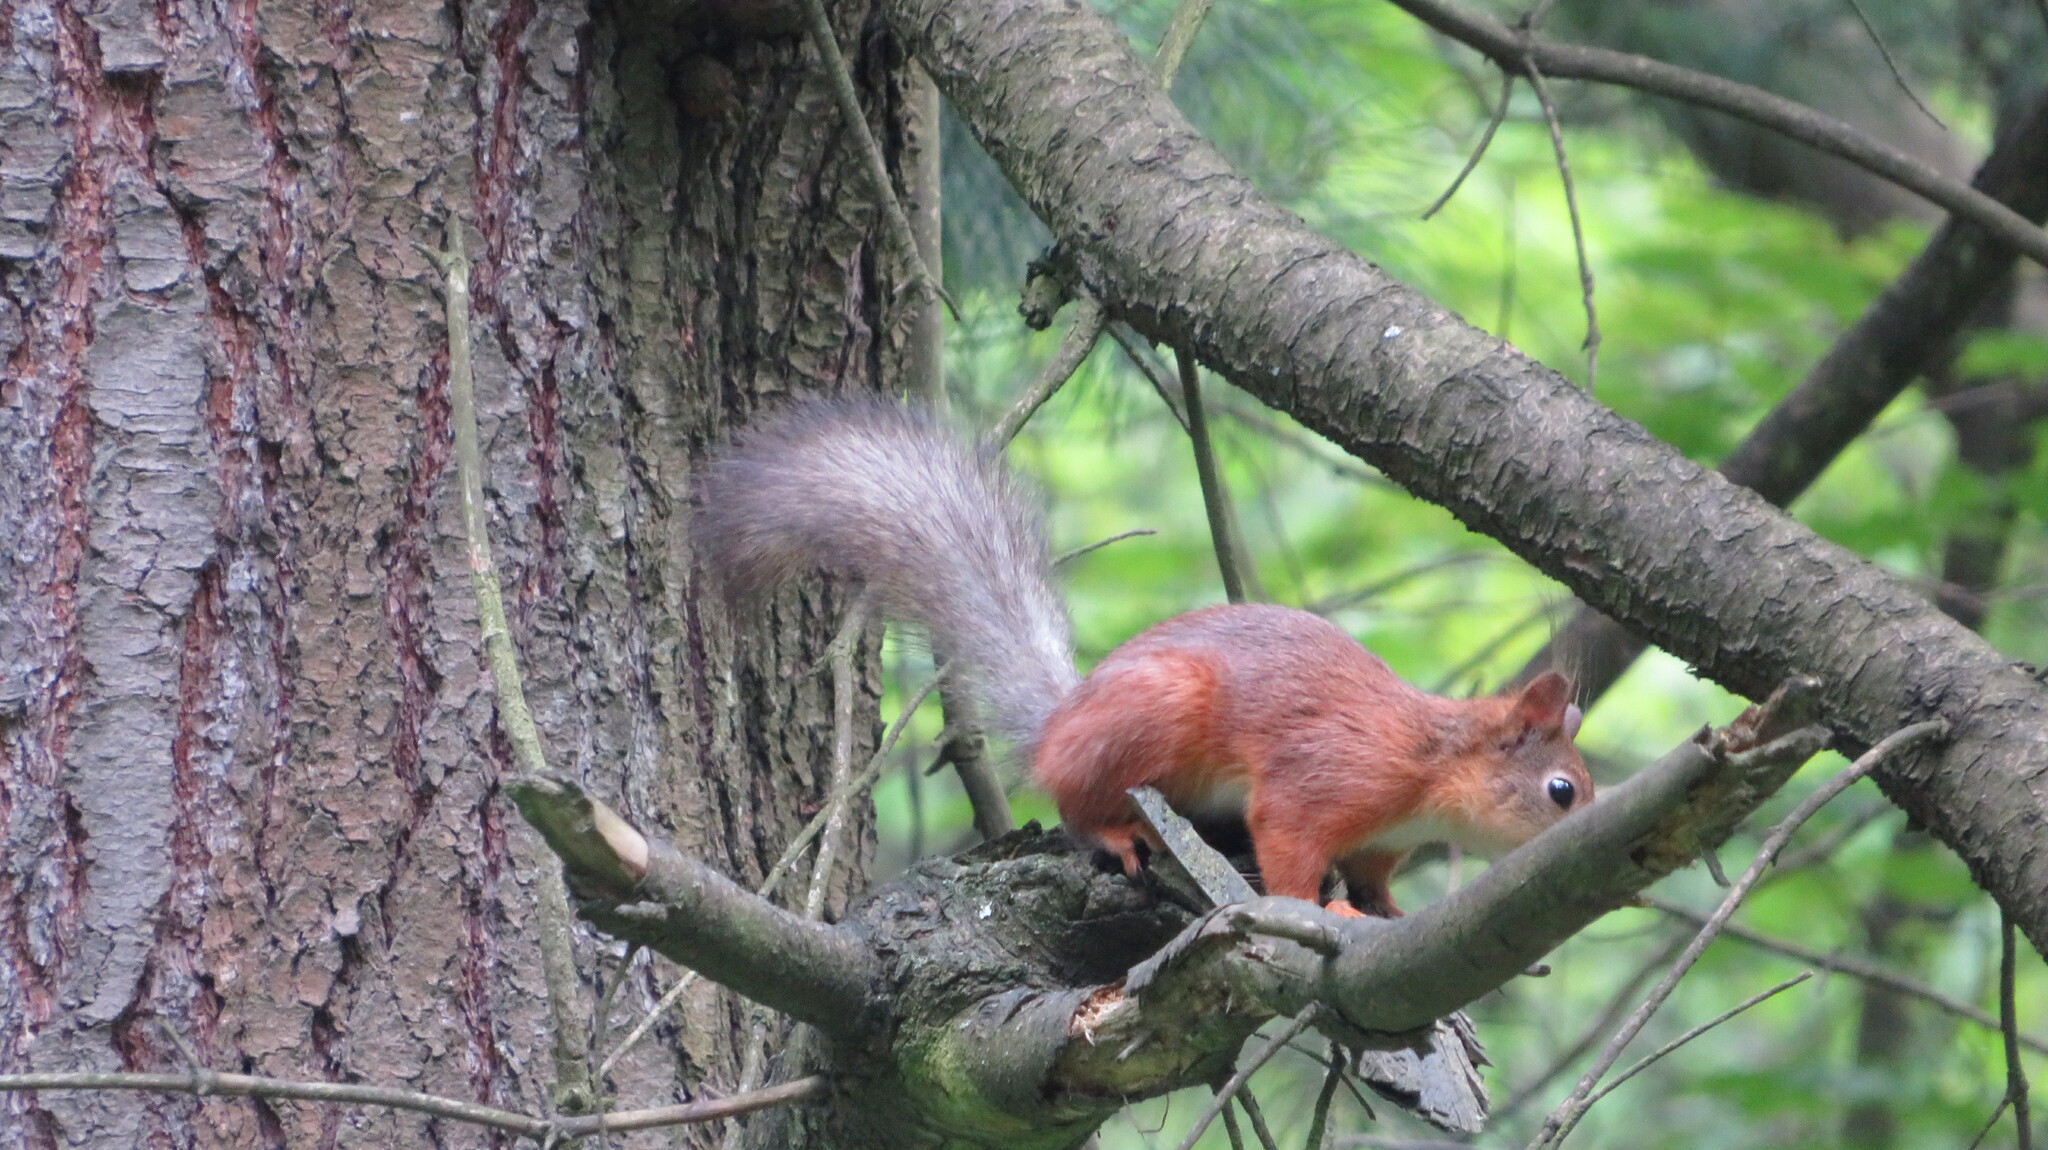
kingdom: Animalia
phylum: Chordata
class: Mammalia
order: Rodentia
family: Sciuridae
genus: Sciurus
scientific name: Sciurus vulgaris
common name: Eurasian red squirrel
